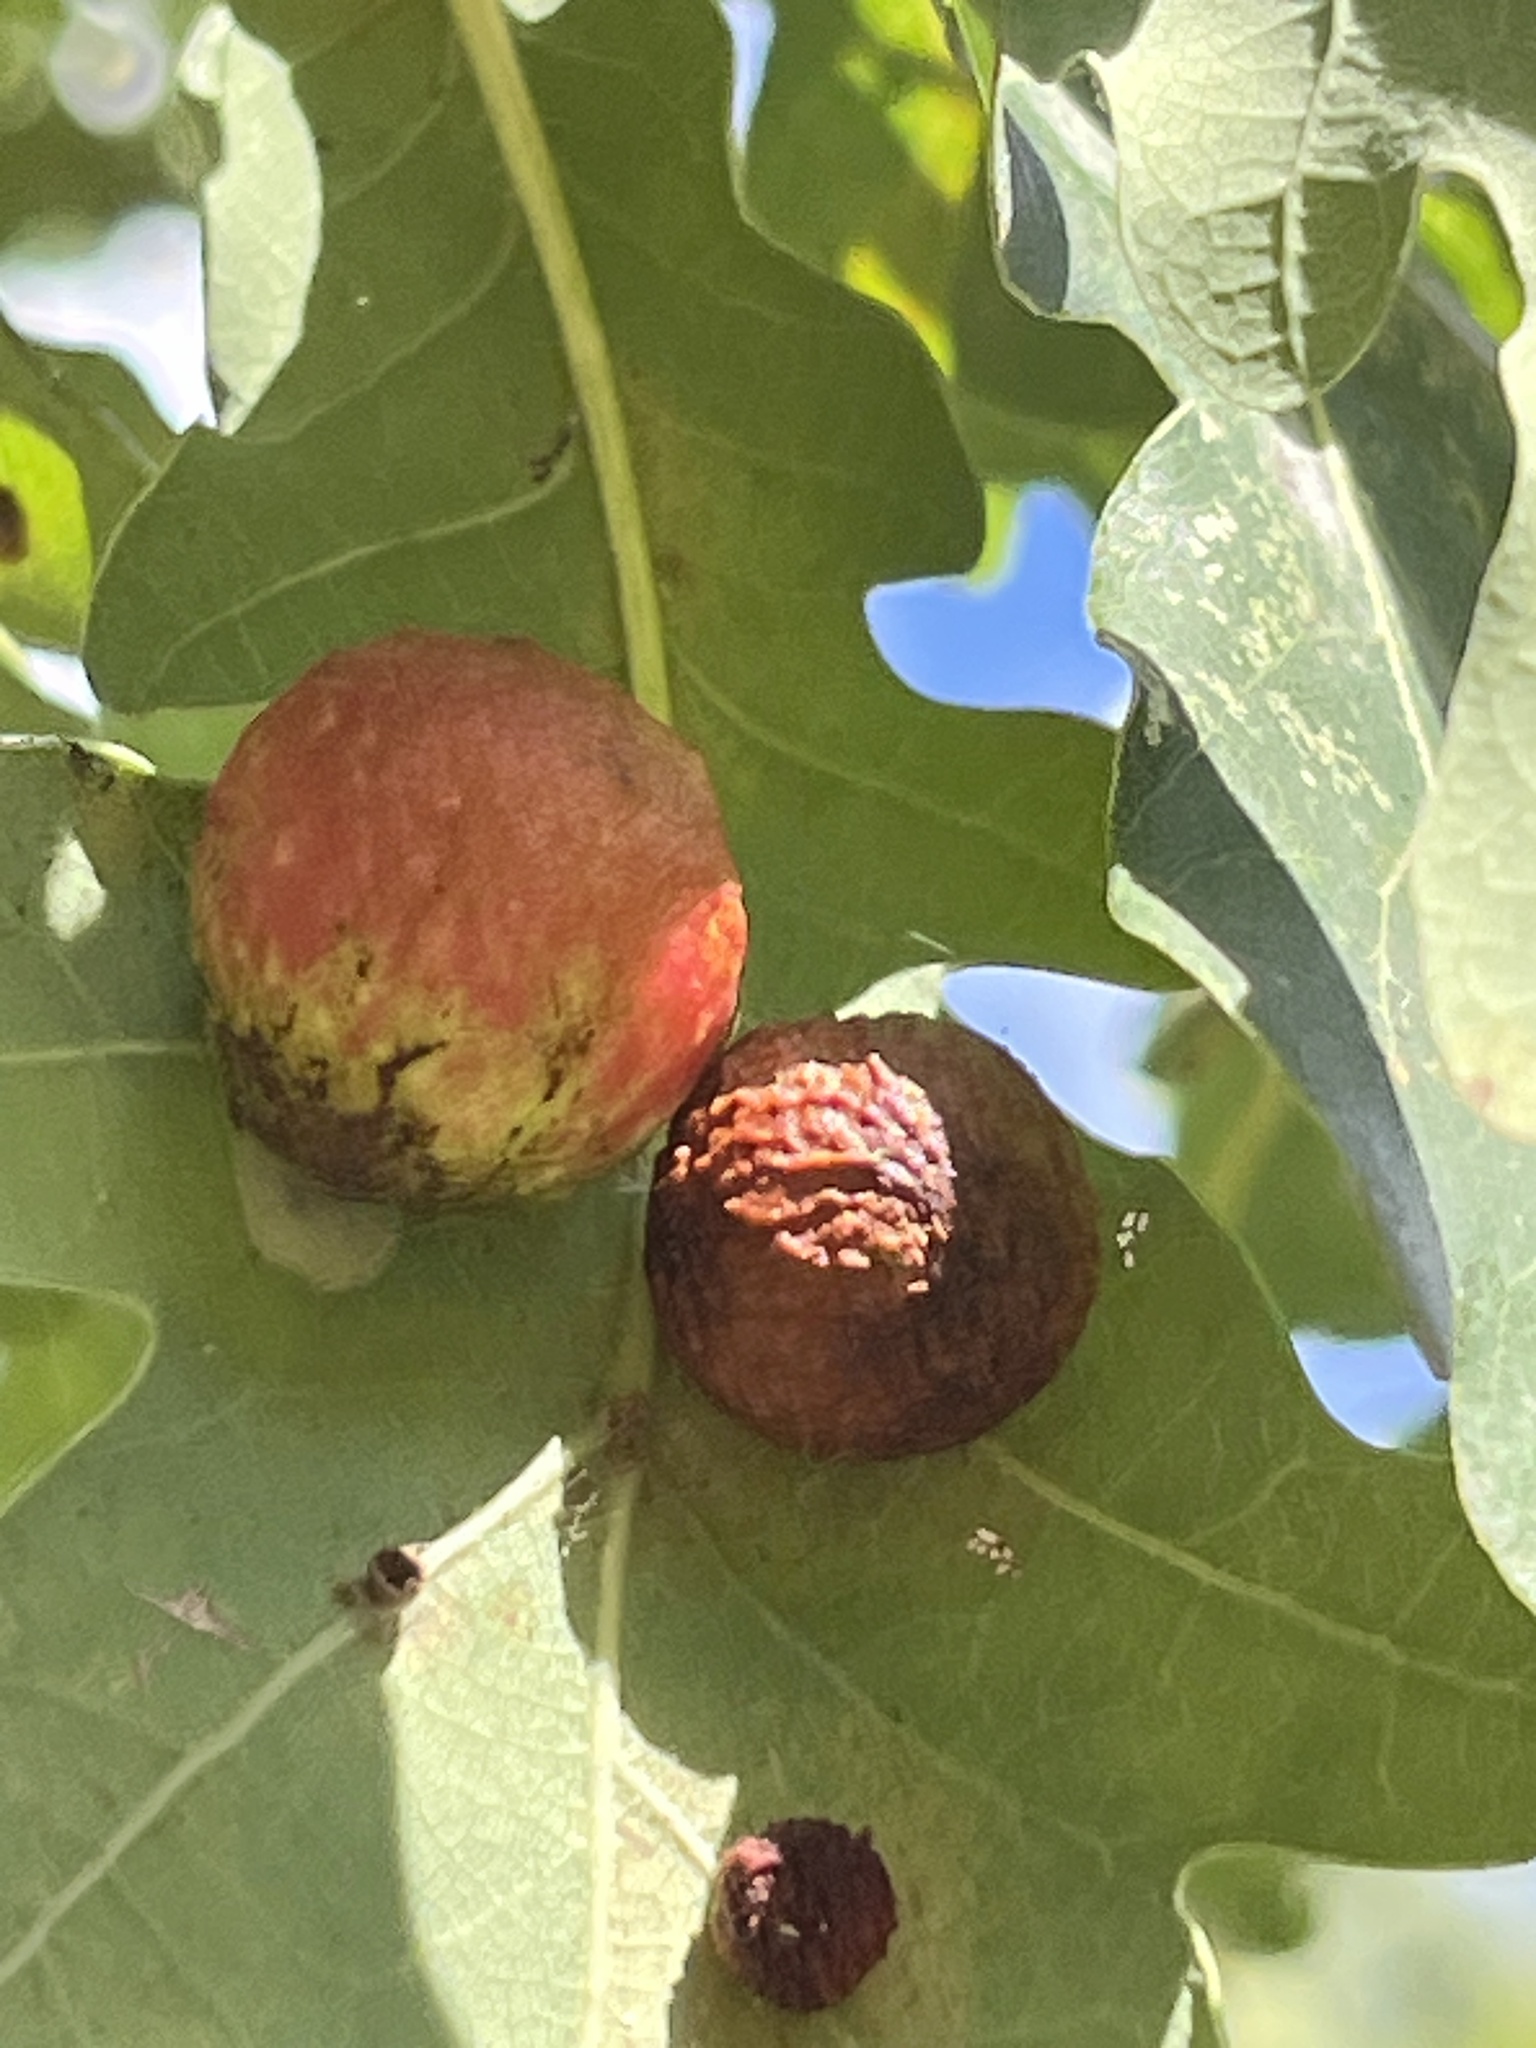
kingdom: Animalia
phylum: Arthropoda
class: Insecta
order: Hymenoptera
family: Cynipidae
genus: Cynips
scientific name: Cynips quercusfolii
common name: Cherry gall
